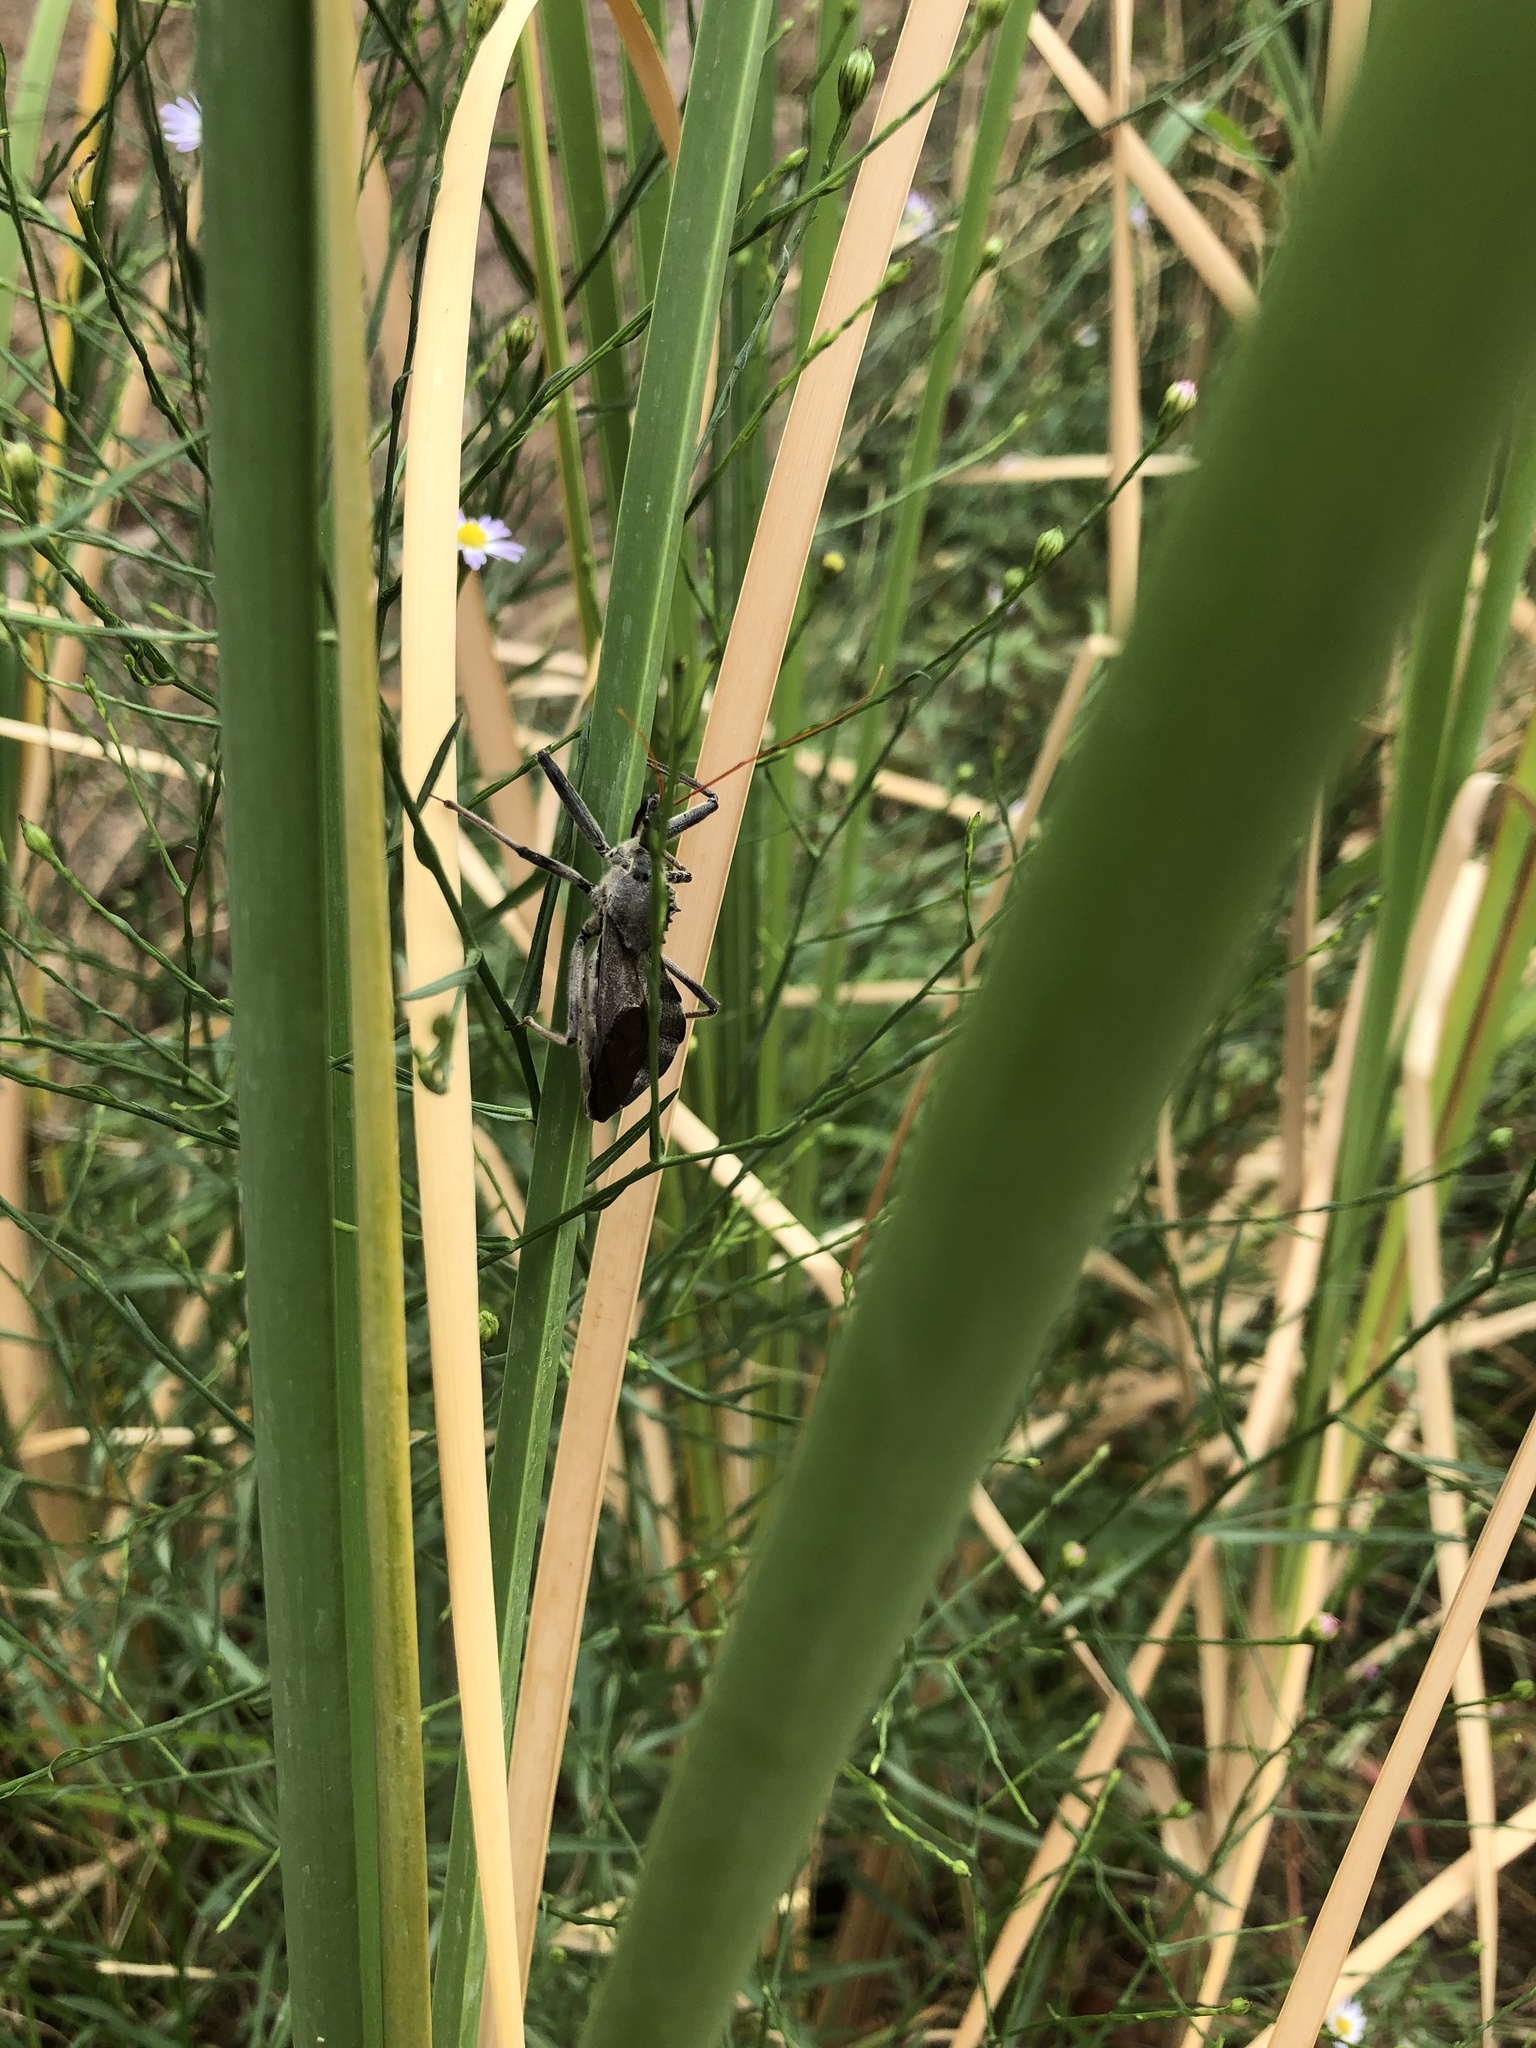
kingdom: Animalia
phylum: Arthropoda
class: Insecta
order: Hemiptera
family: Reduviidae
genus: Arilus
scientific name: Arilus cristatus
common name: North american wheel bug
